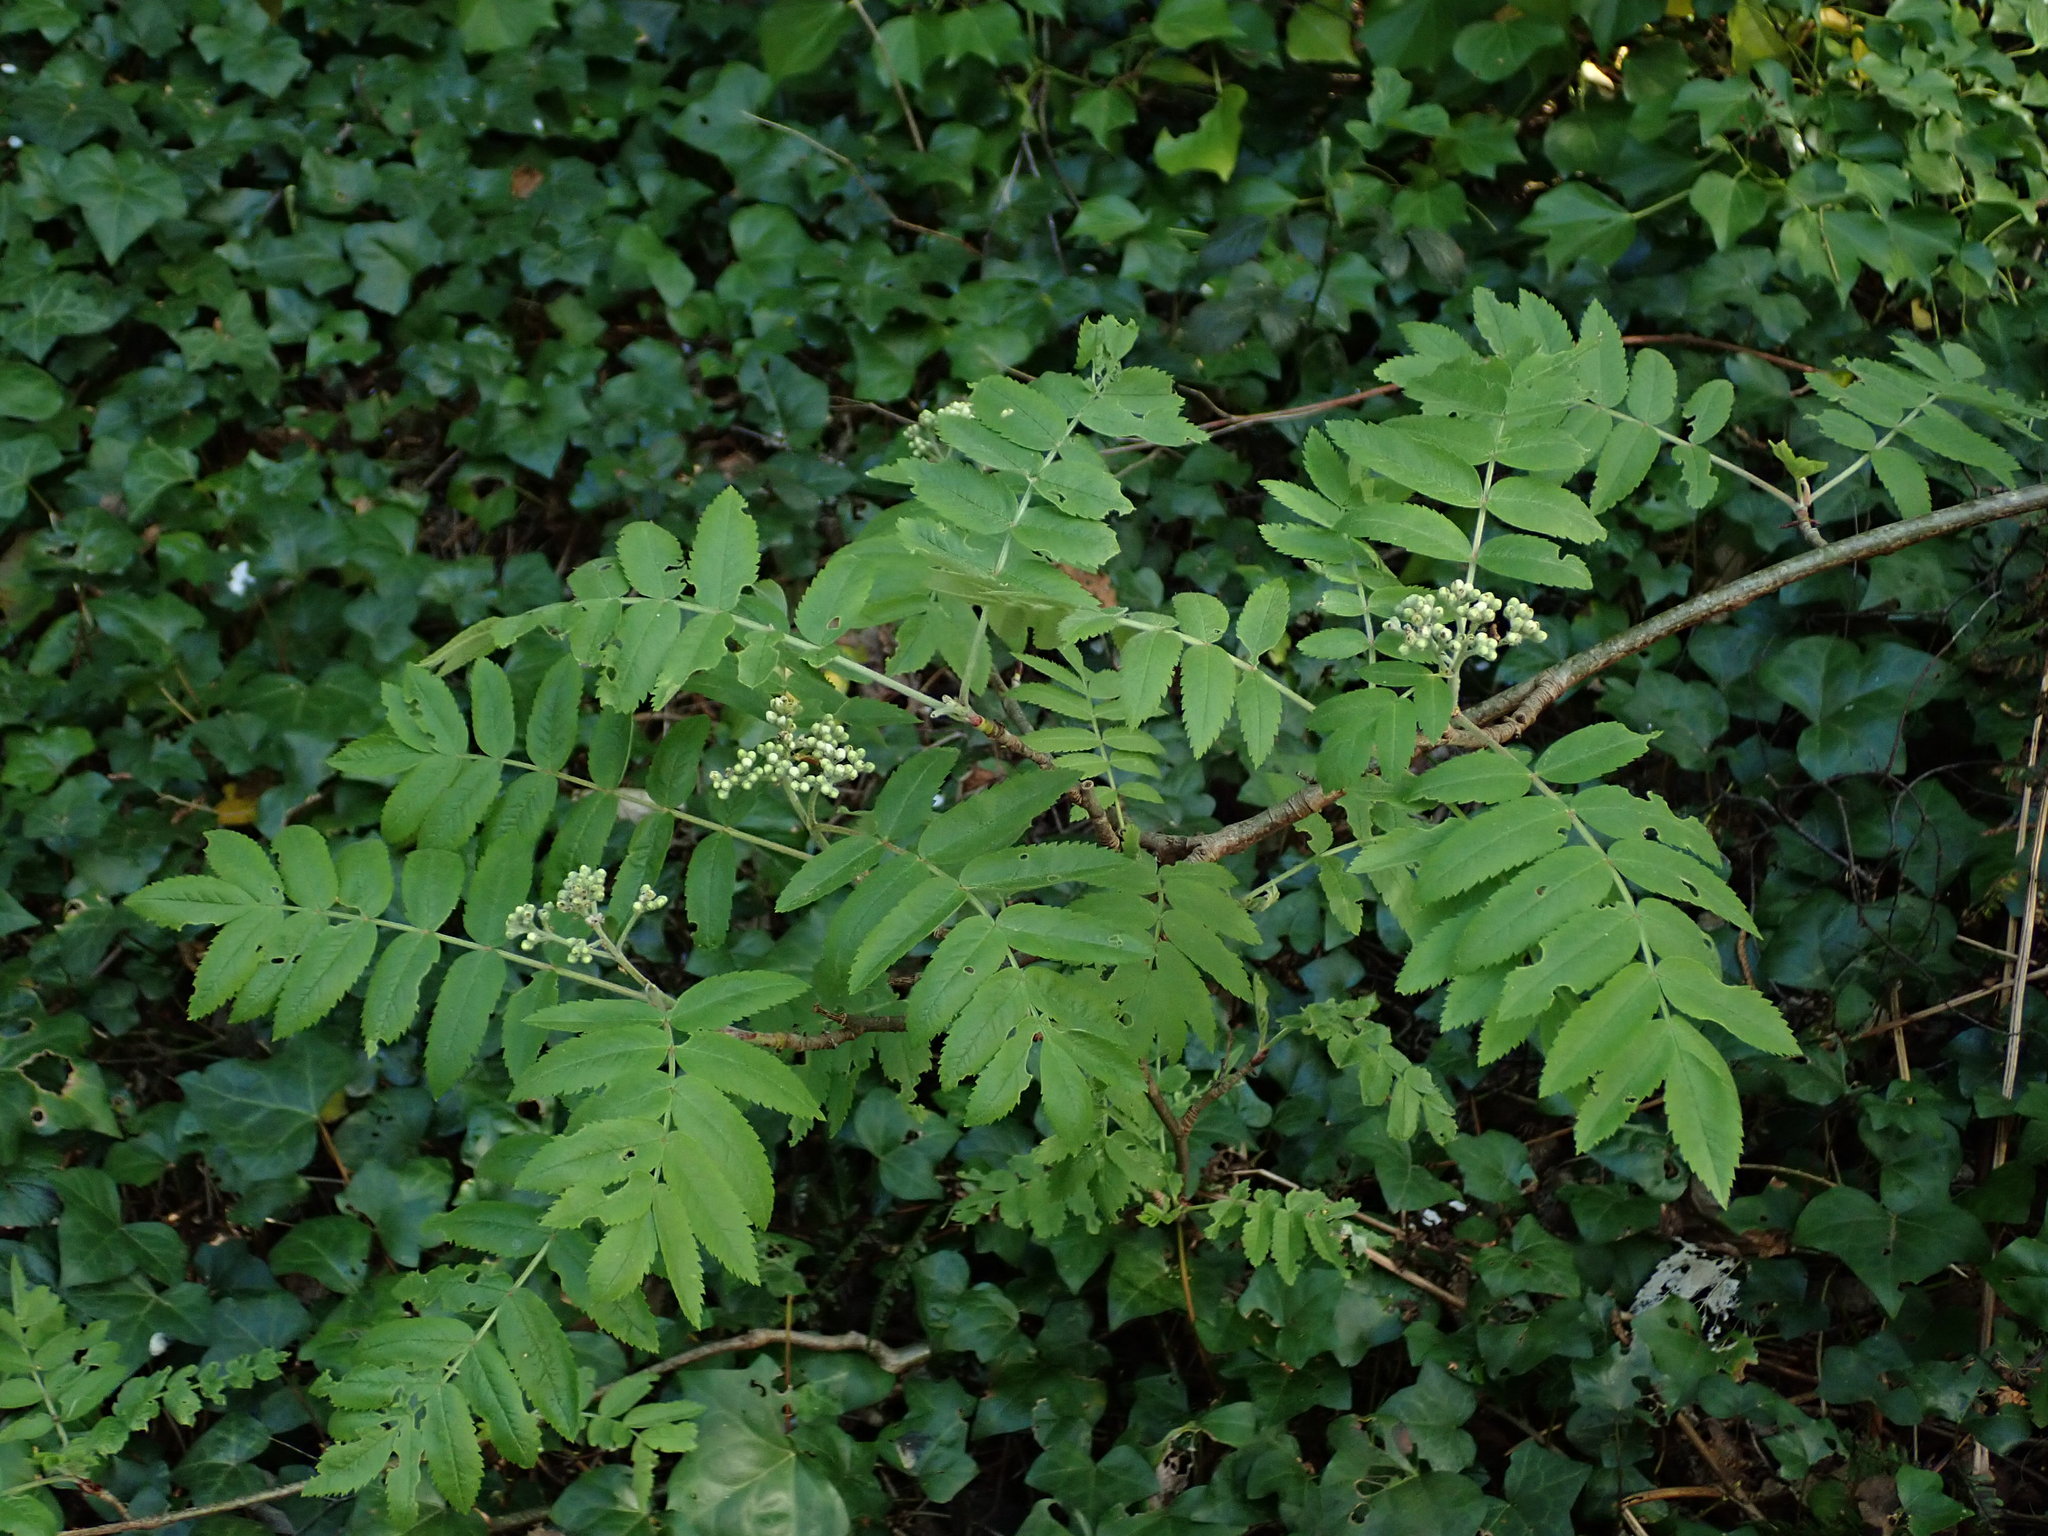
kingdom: Plantae
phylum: Tracheophyta
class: Magnoliopsida
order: Rosales
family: Rosaceae
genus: Sorbus
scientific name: Sorbus aucuparia
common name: Rowan
